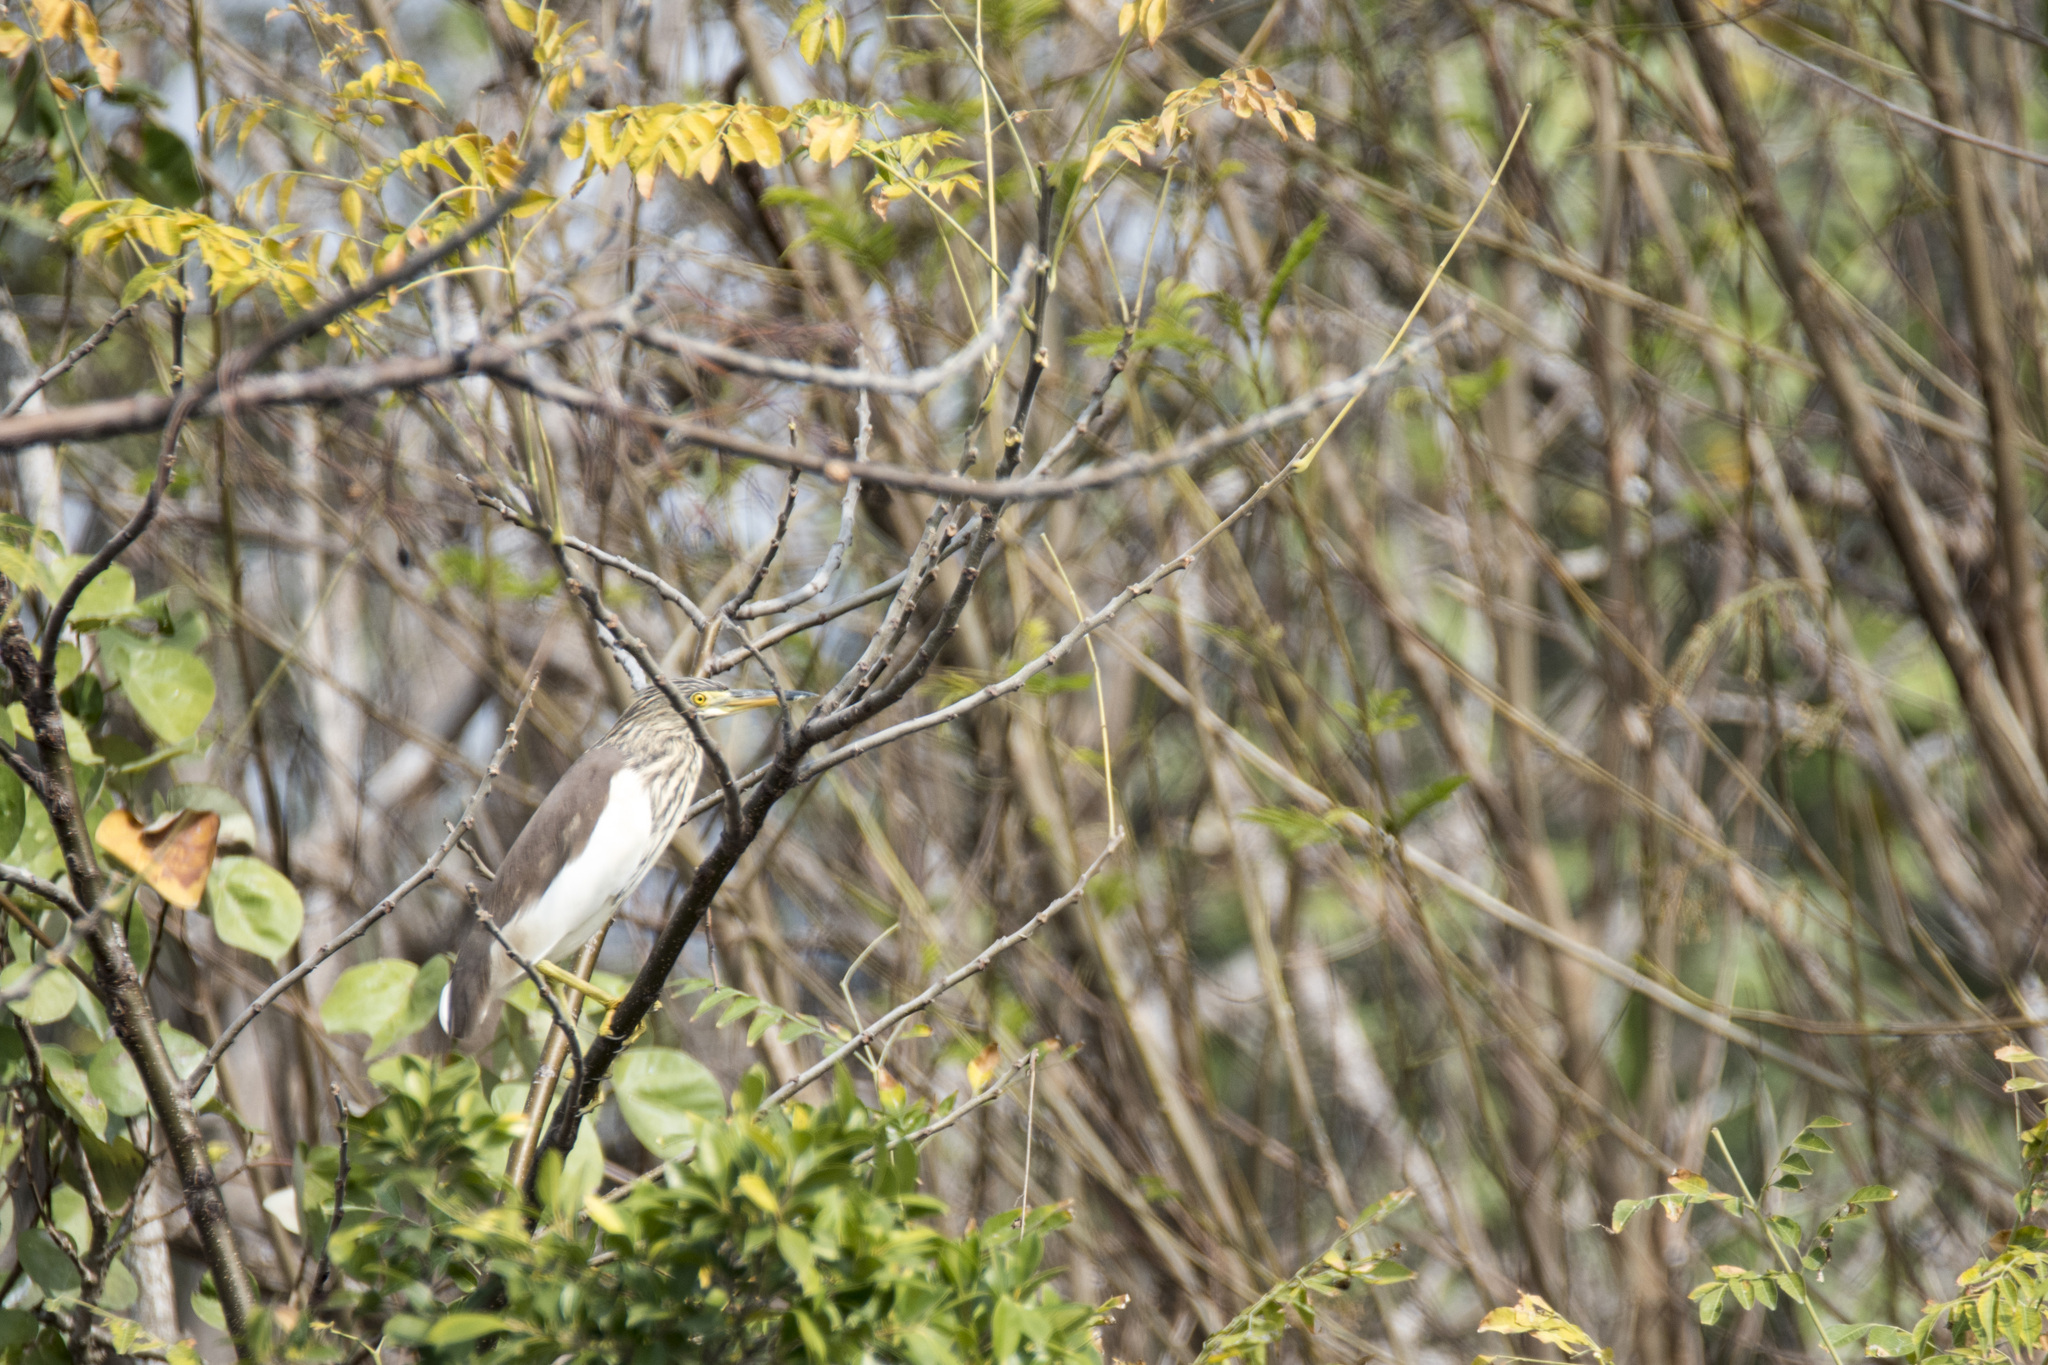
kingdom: Animalia
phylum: Chordata
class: Aves
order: Pelecaniformes
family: Ardeidae
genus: Ardeola
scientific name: Ardeola bacchus
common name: Chinese pond heron
